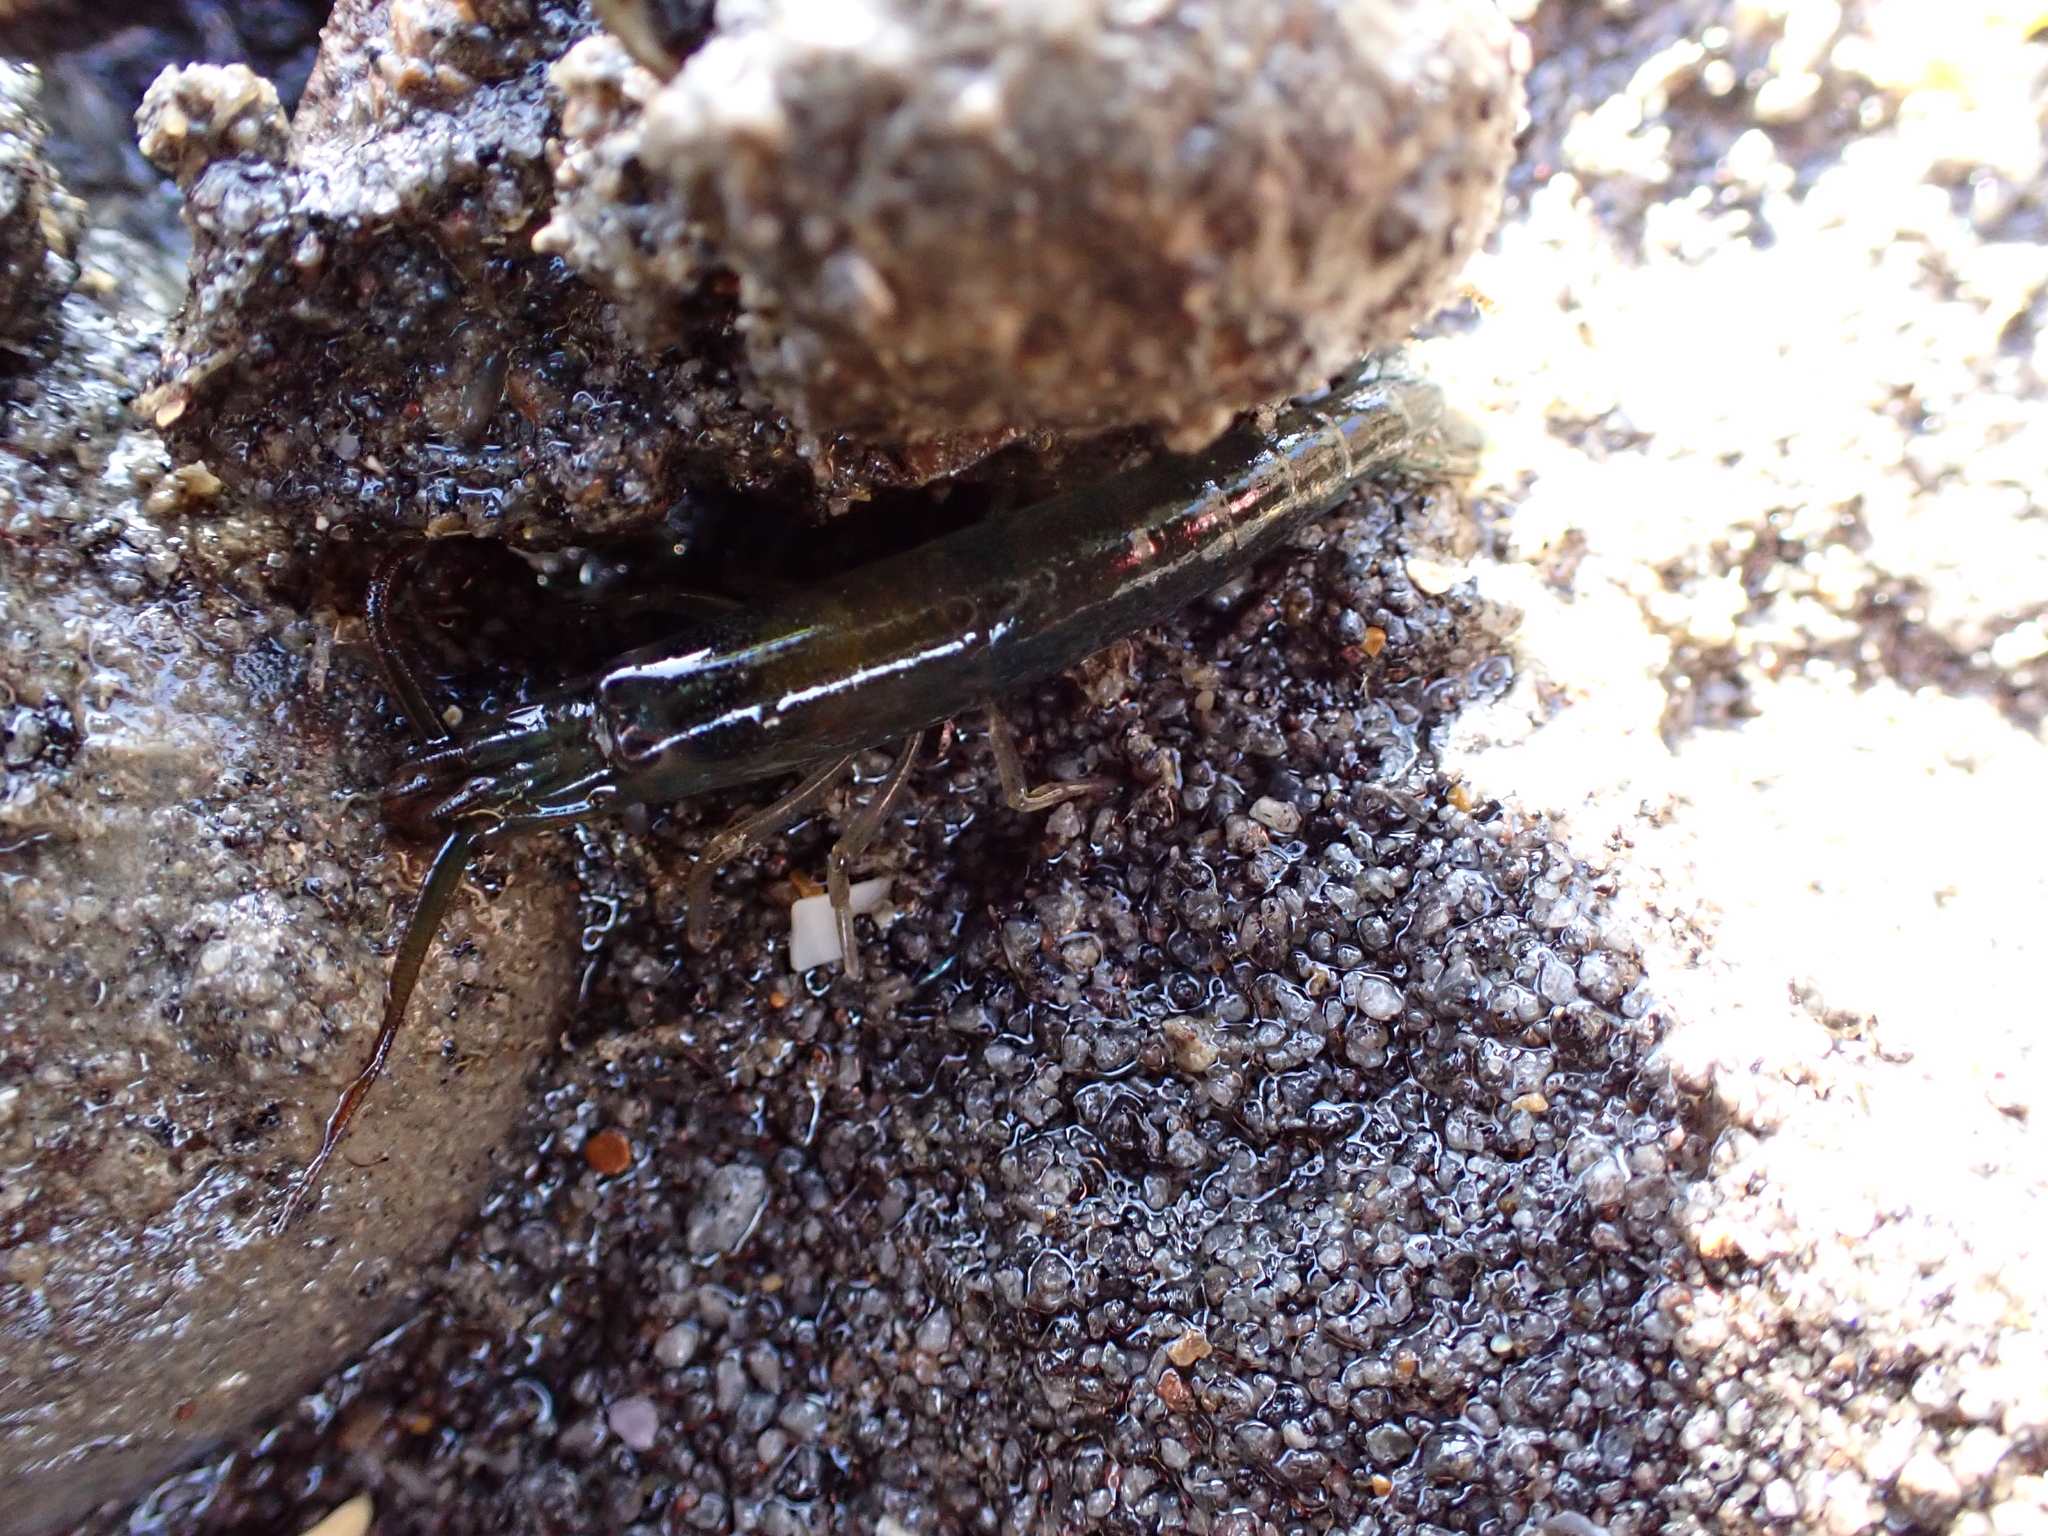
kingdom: Animalia
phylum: Arthropoda
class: Malacostraca
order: Decapoda
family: Alpheidae
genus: Betaeopsis
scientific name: Betaeopsis aequimanus
